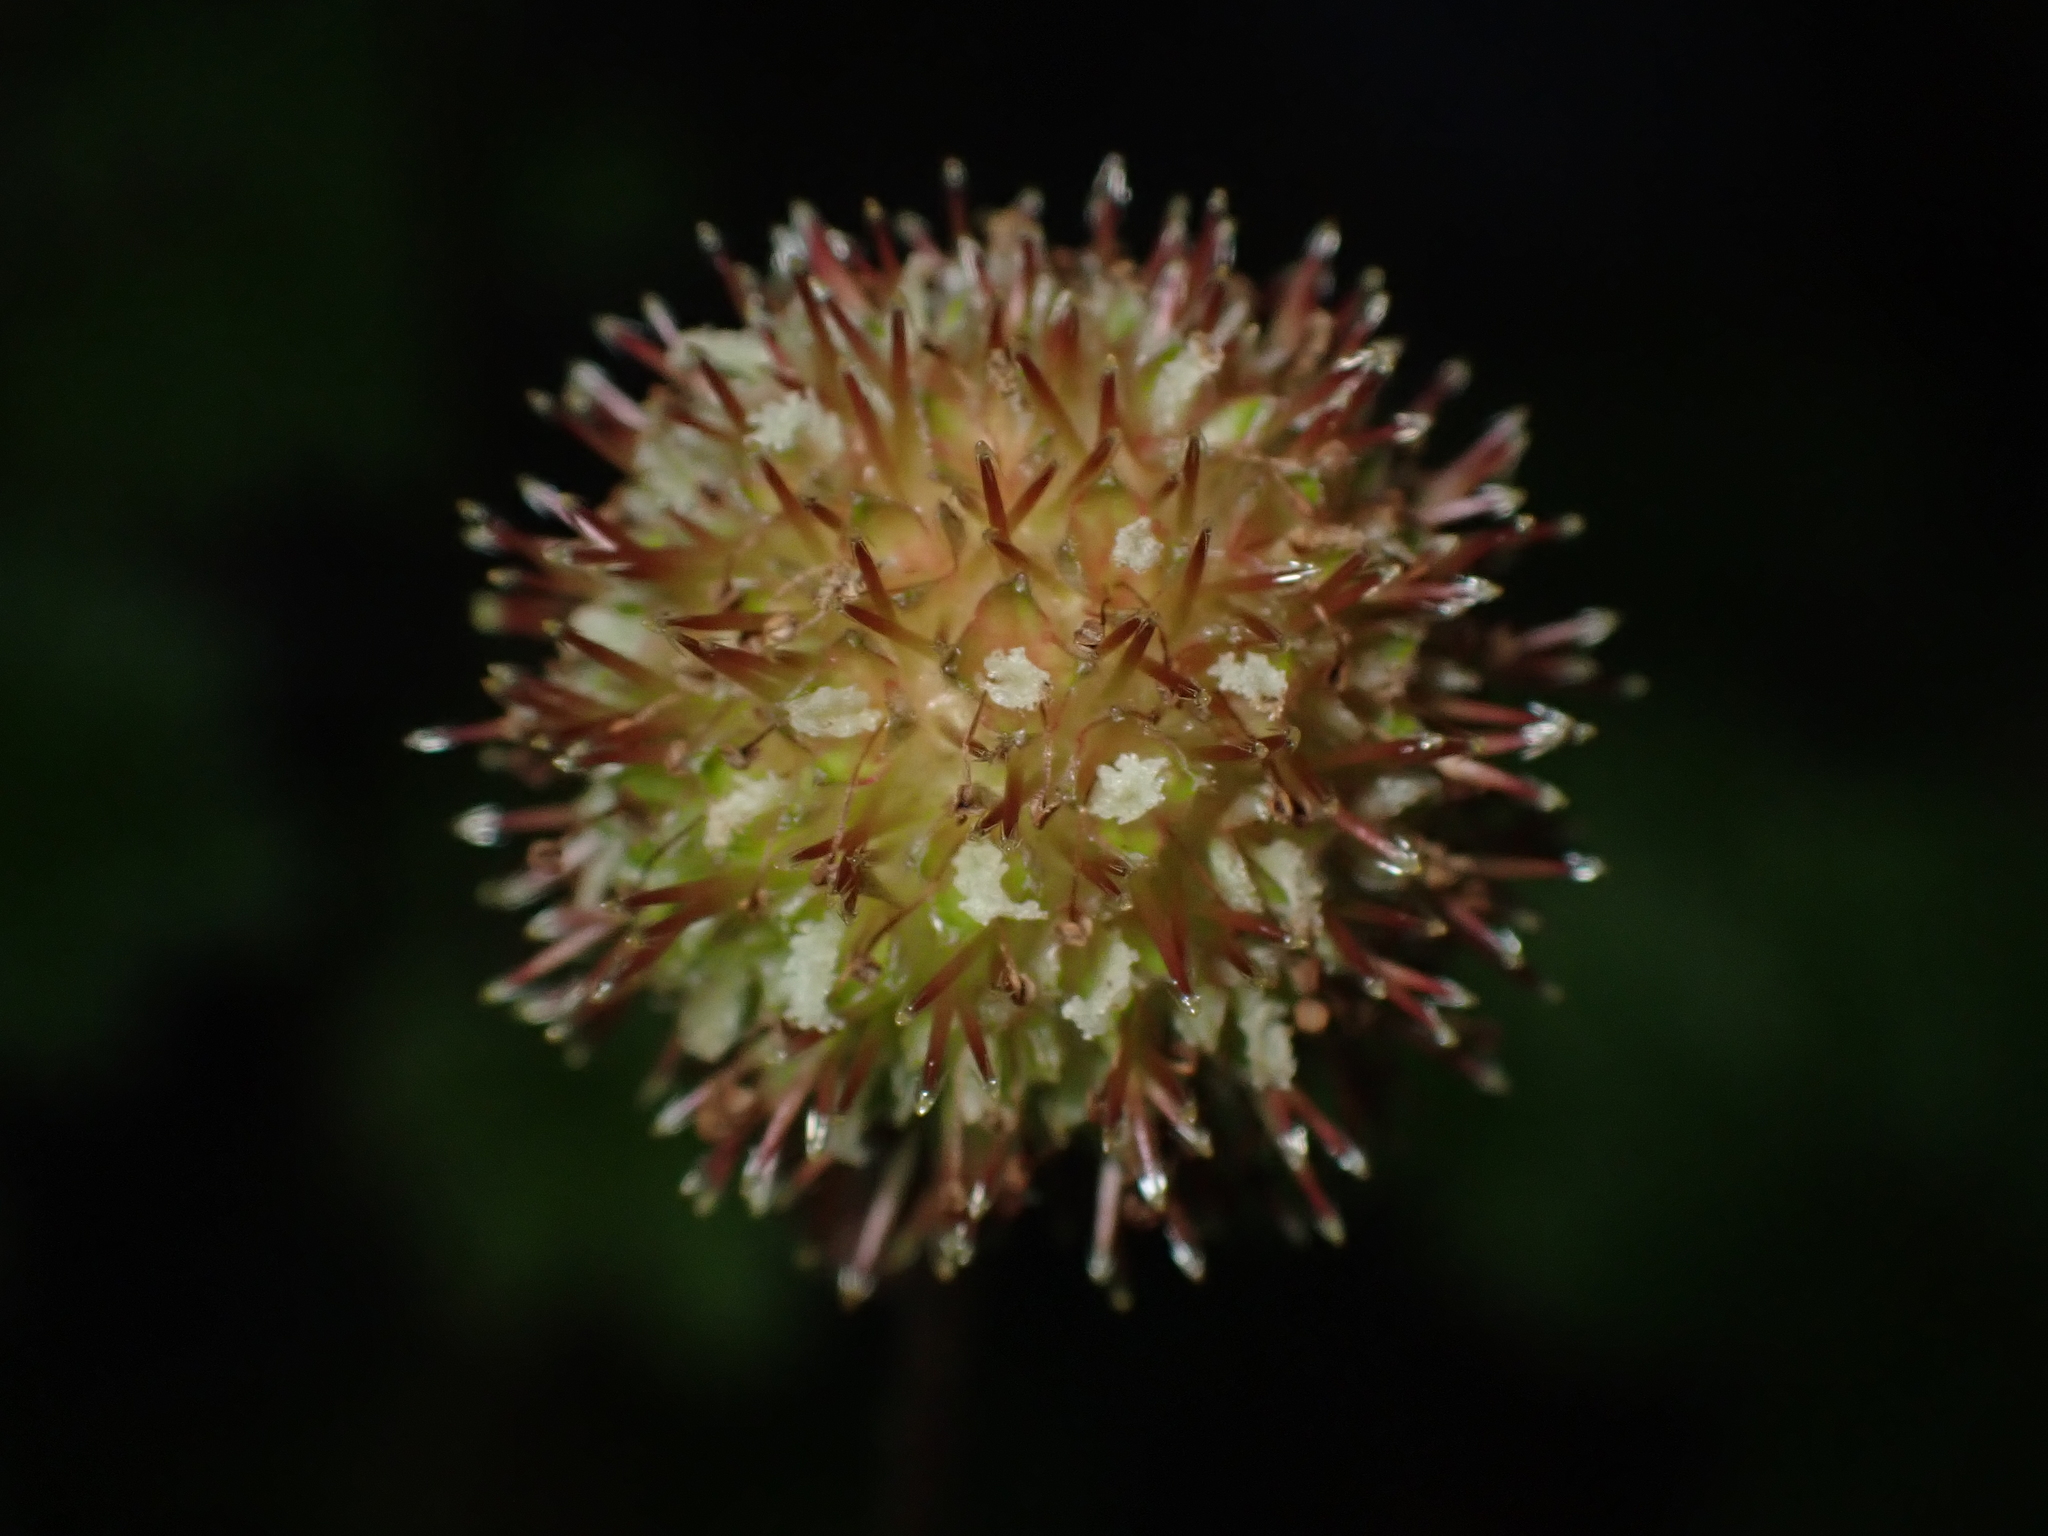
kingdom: Plantae
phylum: Tracheophyta
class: Magnoliopsida
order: Rosales
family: Rosaceae
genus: Acaena
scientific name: Acaena anserinifolia
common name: Bronze pirri-pirri-bur
